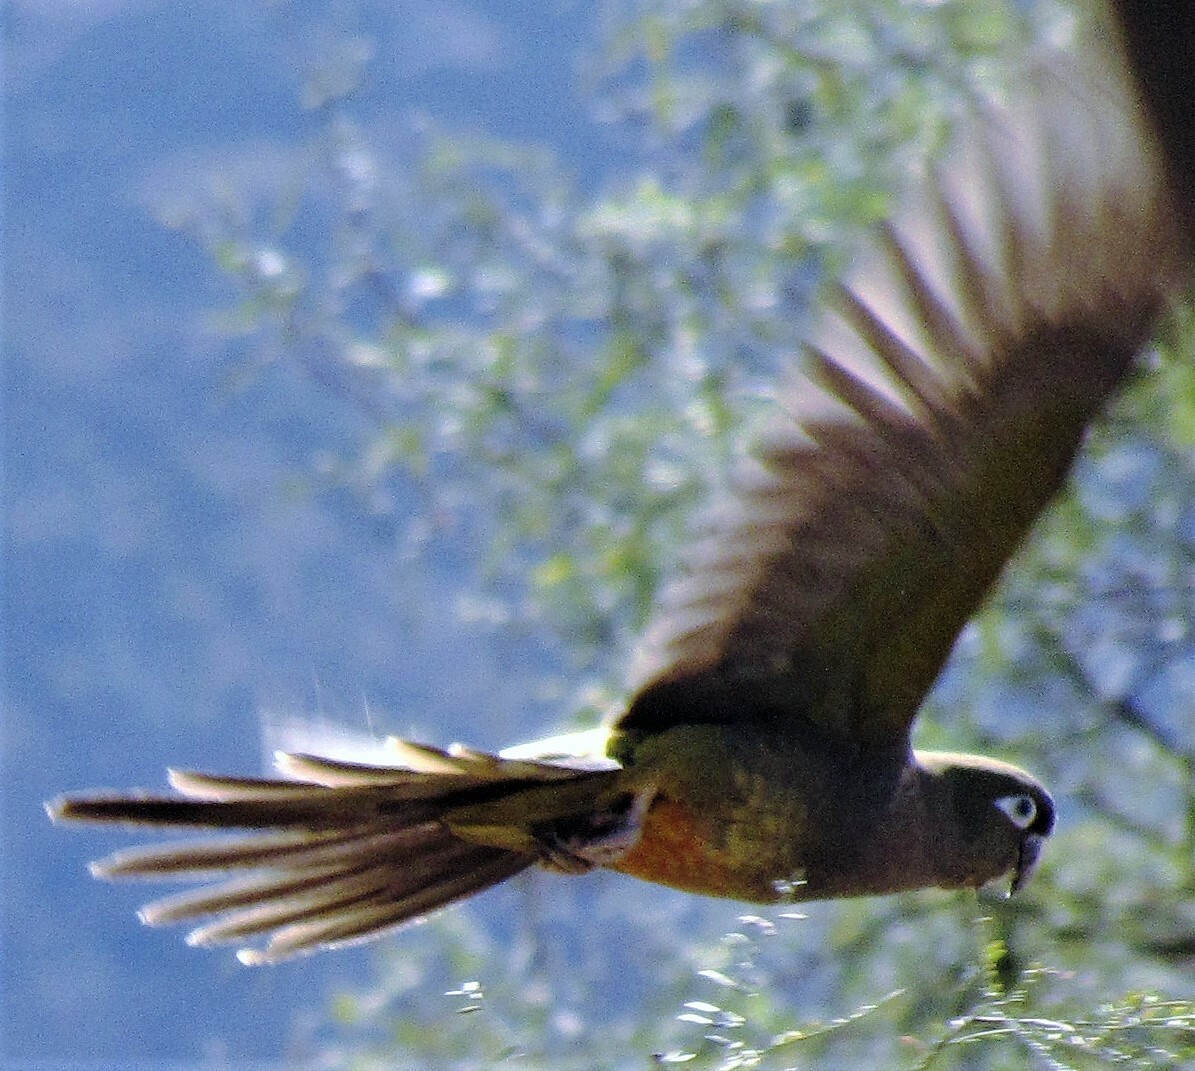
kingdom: Animalia
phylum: Chordata
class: Aves
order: Psittaciformes
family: Psittacidae
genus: Cyanoliseus
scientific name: Cyanoliseus patagonus
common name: Burrowing parrot
